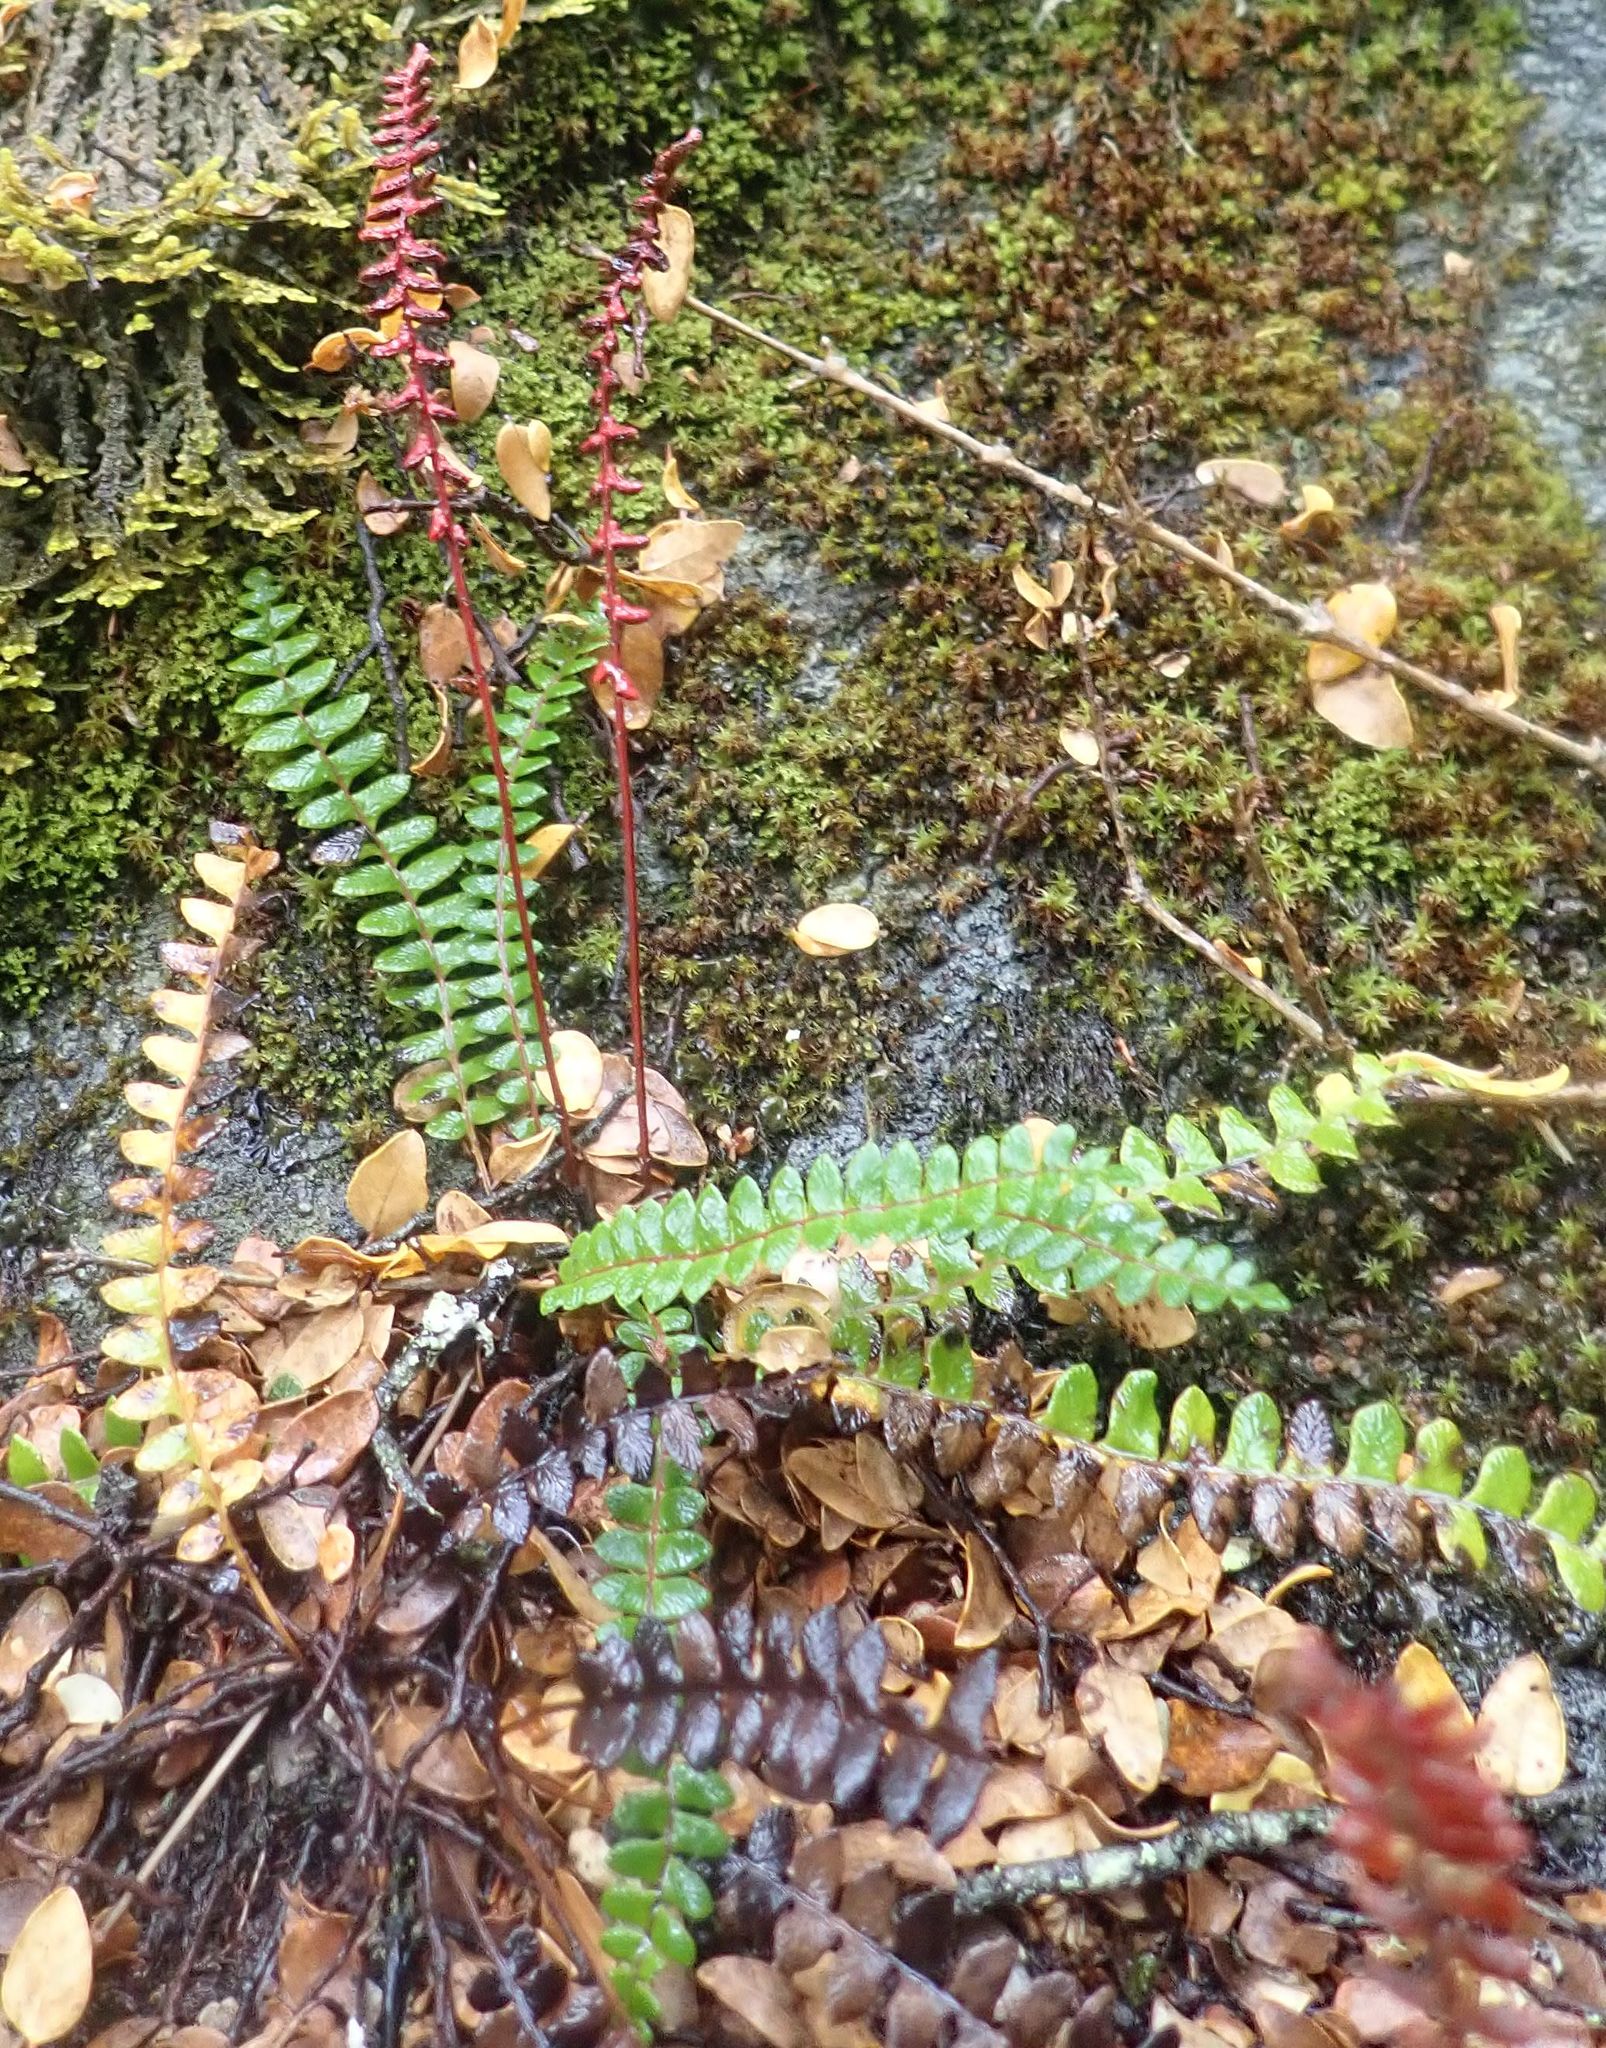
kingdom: Plantae
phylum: Tracheophyta
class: Polypodiopsida
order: Polypodiales
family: Blechnaceae
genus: Austroblechnum
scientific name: Austroblechnum penna-marina
